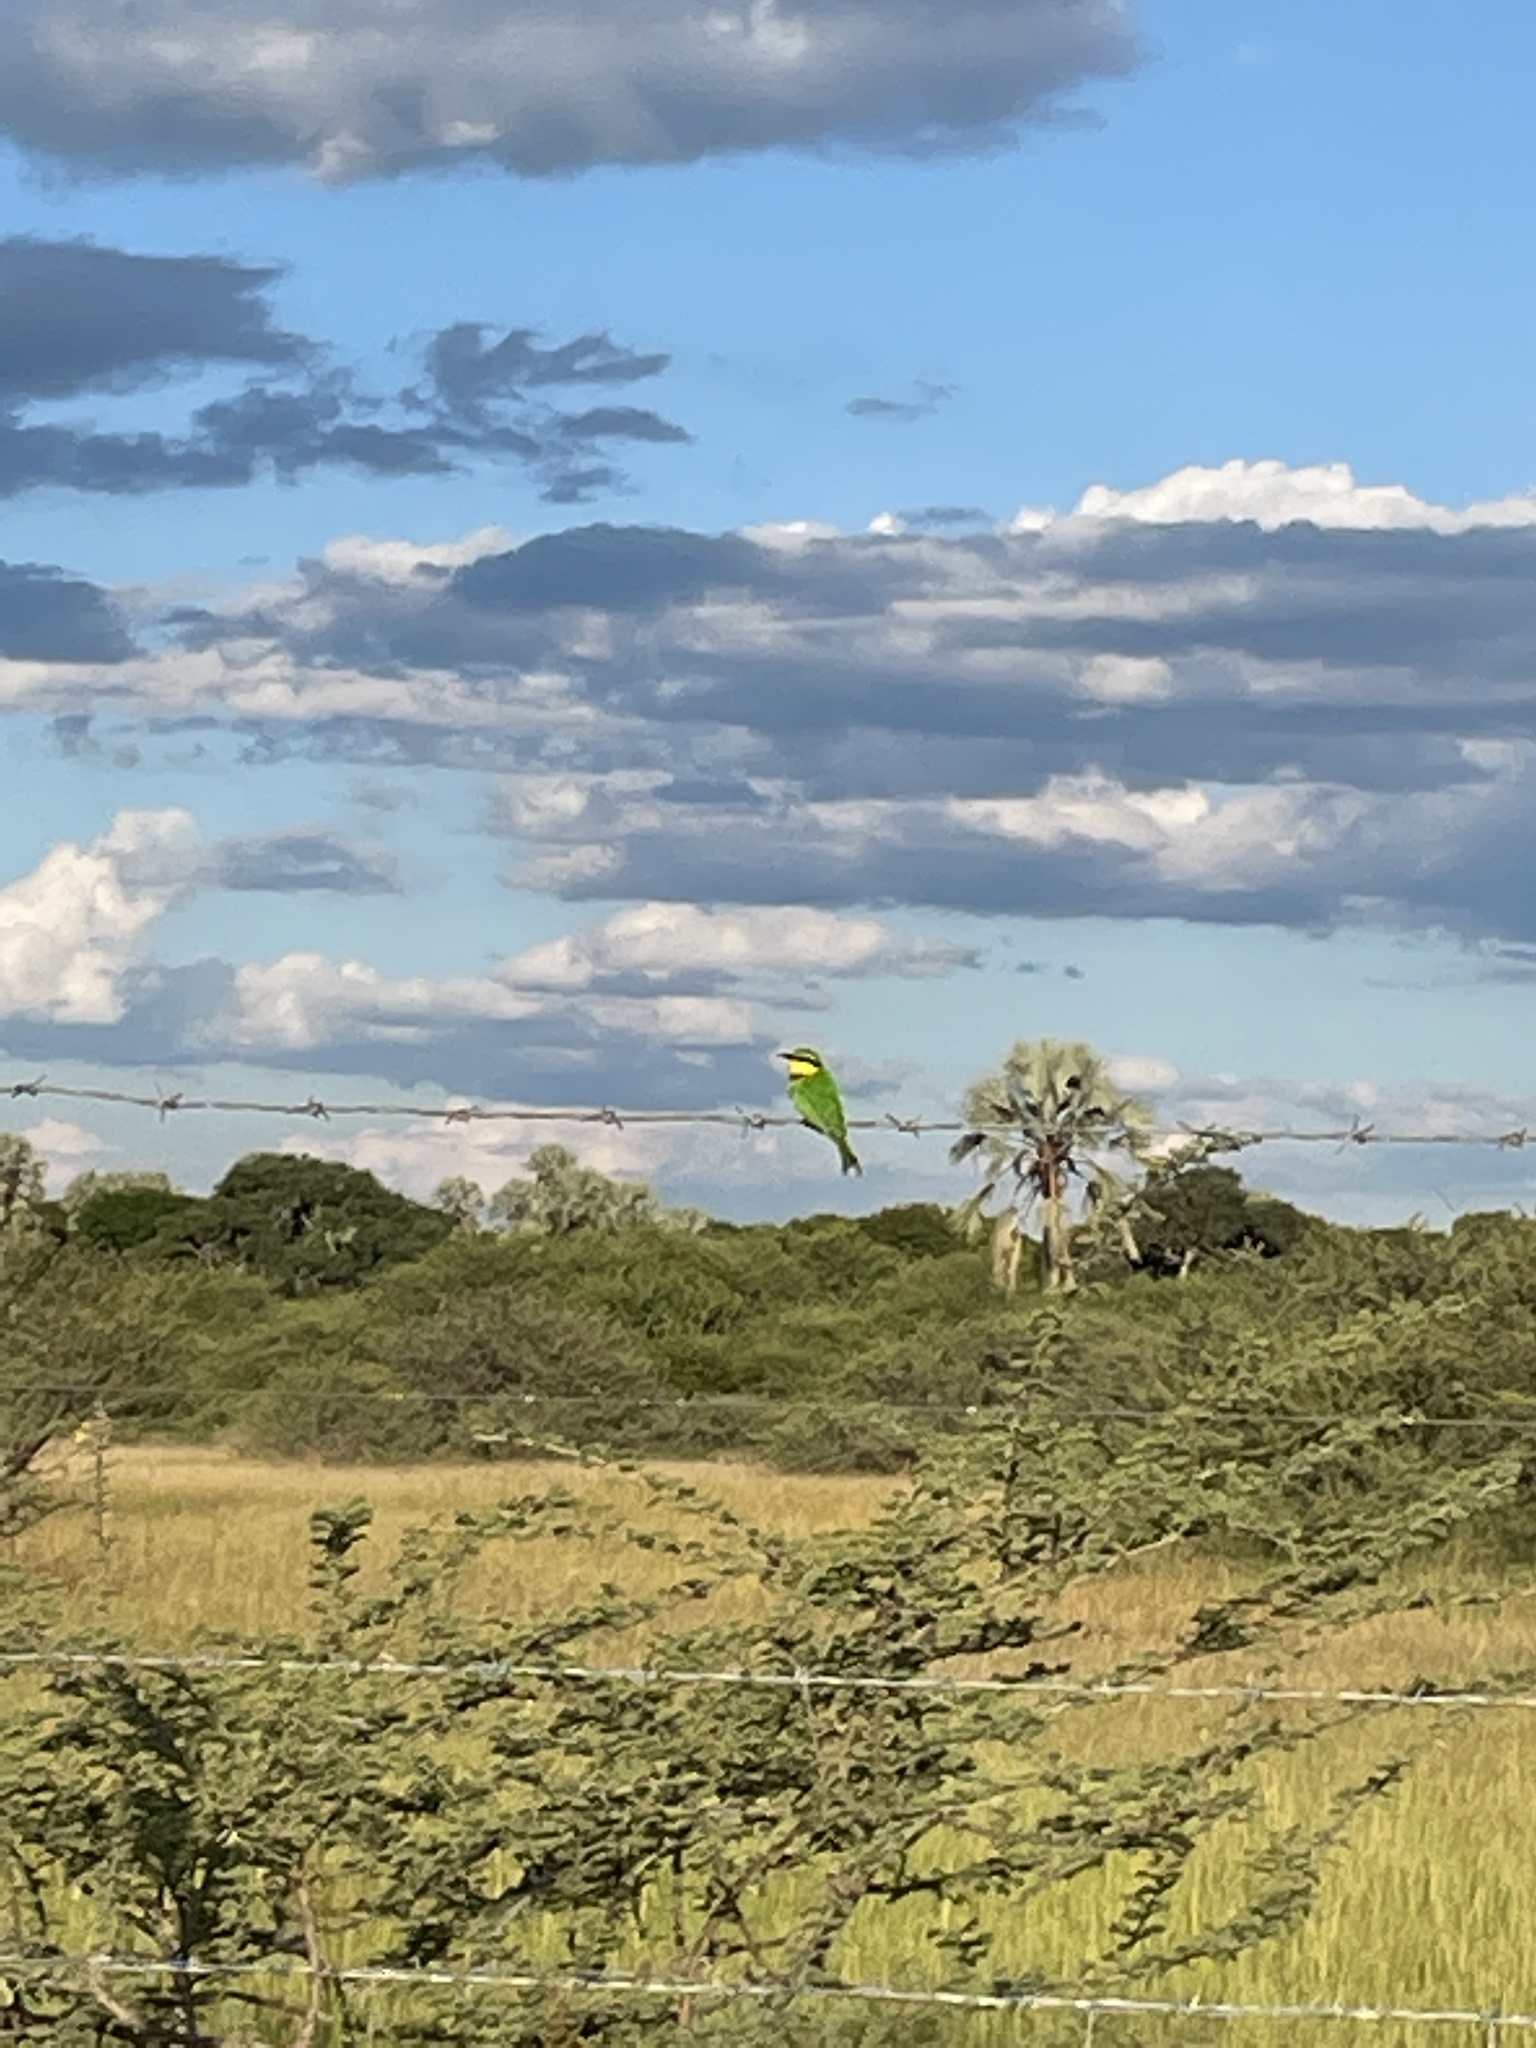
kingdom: Animalia
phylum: Chordata
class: Aves
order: Coraciiformes
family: Meropidae
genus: Merops
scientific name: Merops pusillus
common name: Little bee-eater
